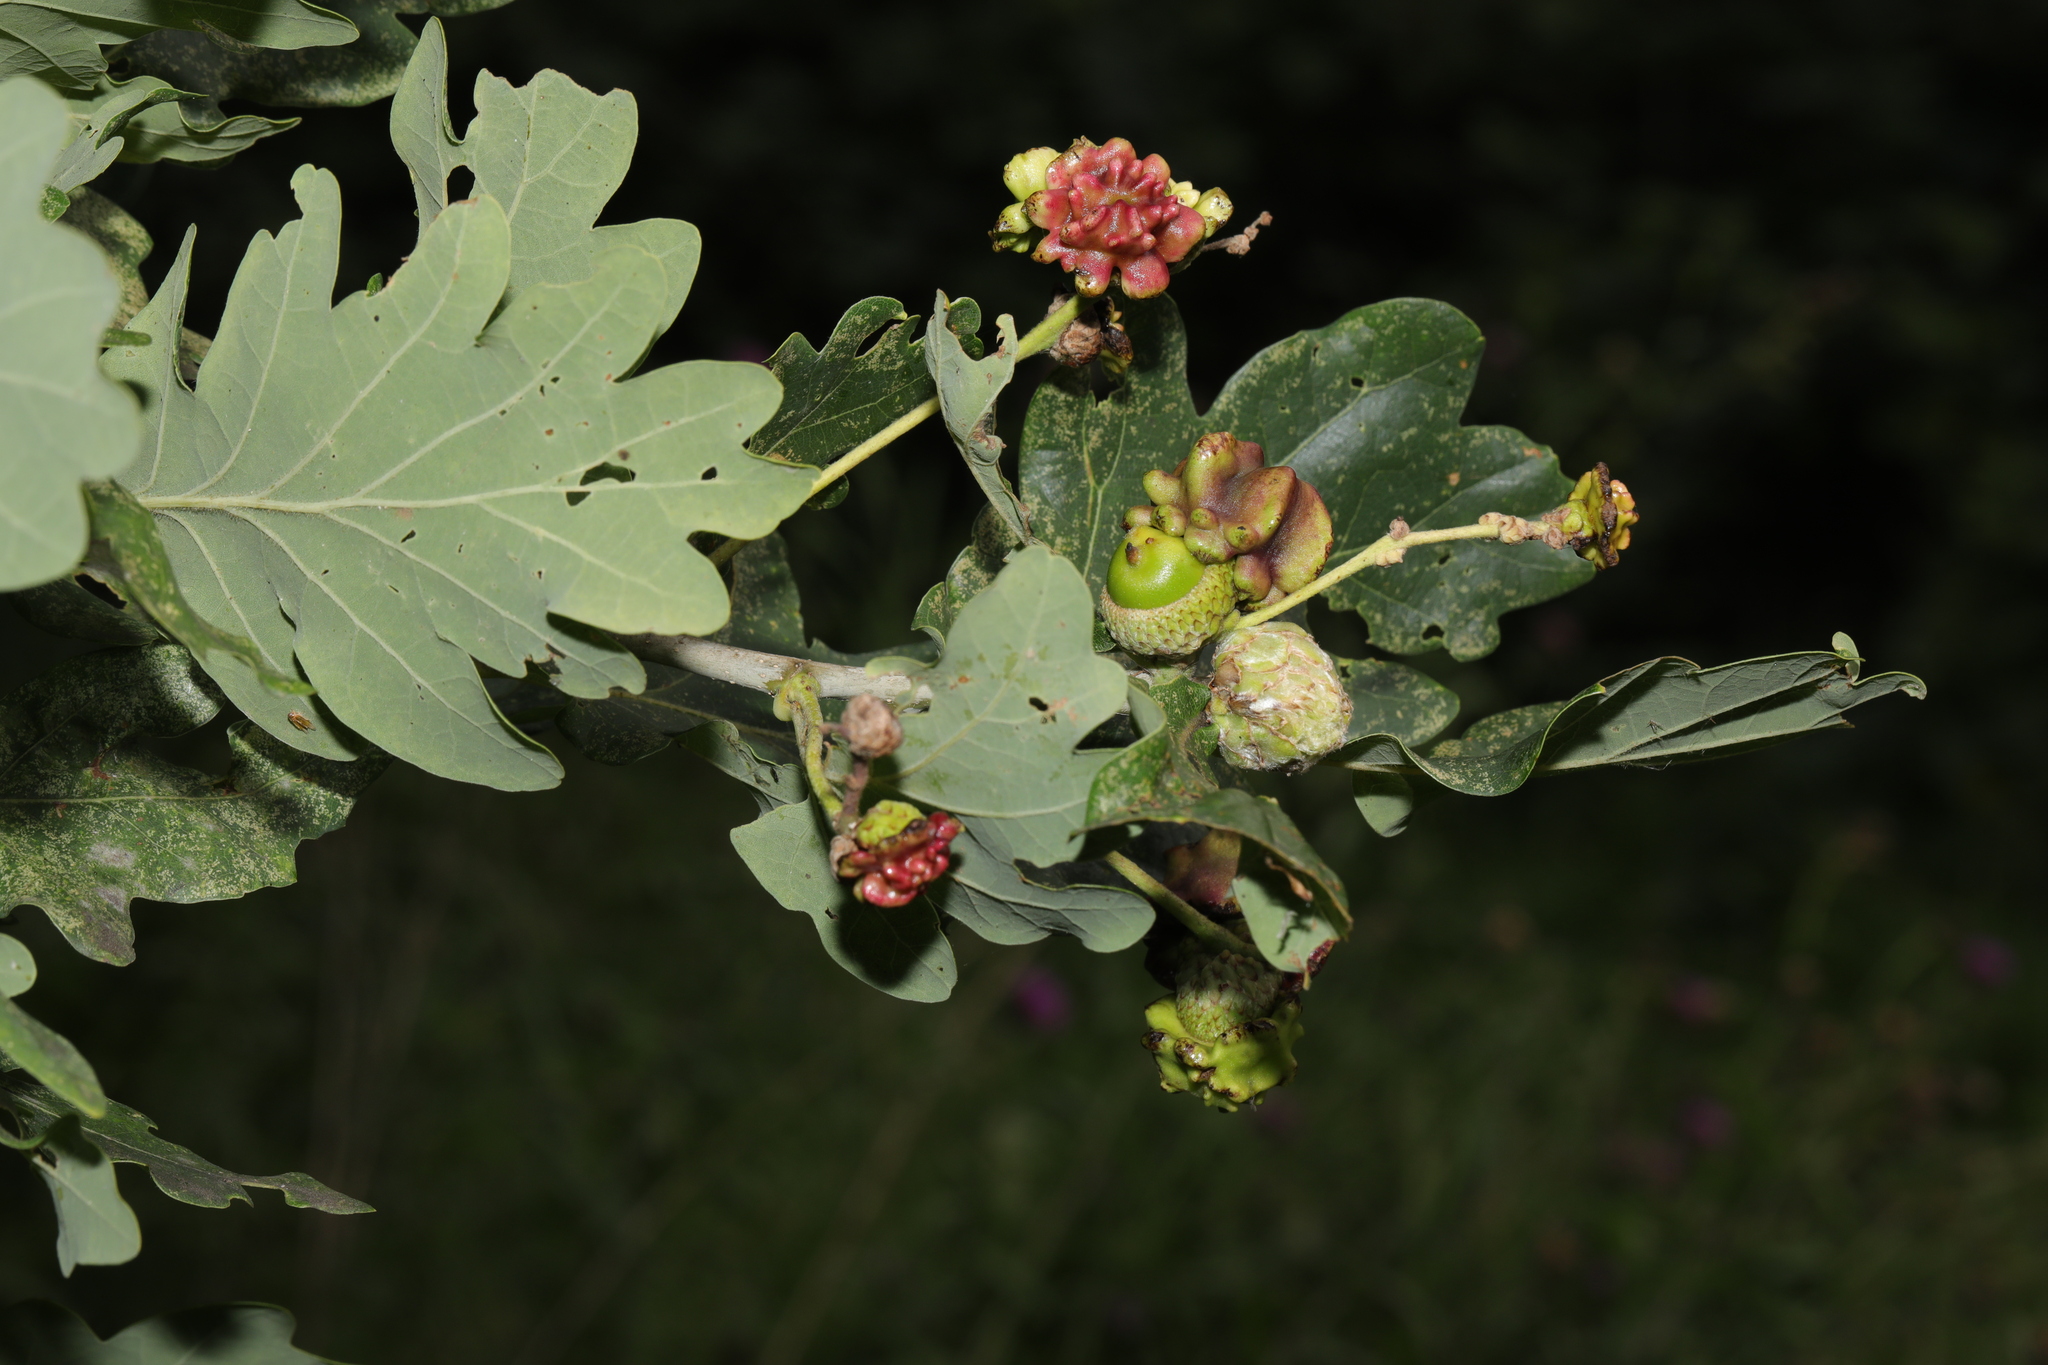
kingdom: Plantae
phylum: Tracheophyta
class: Magnoliopsida
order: Fagales
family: Fagaceae
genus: Quercus
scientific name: Quercus robur
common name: Pedunculate oak
